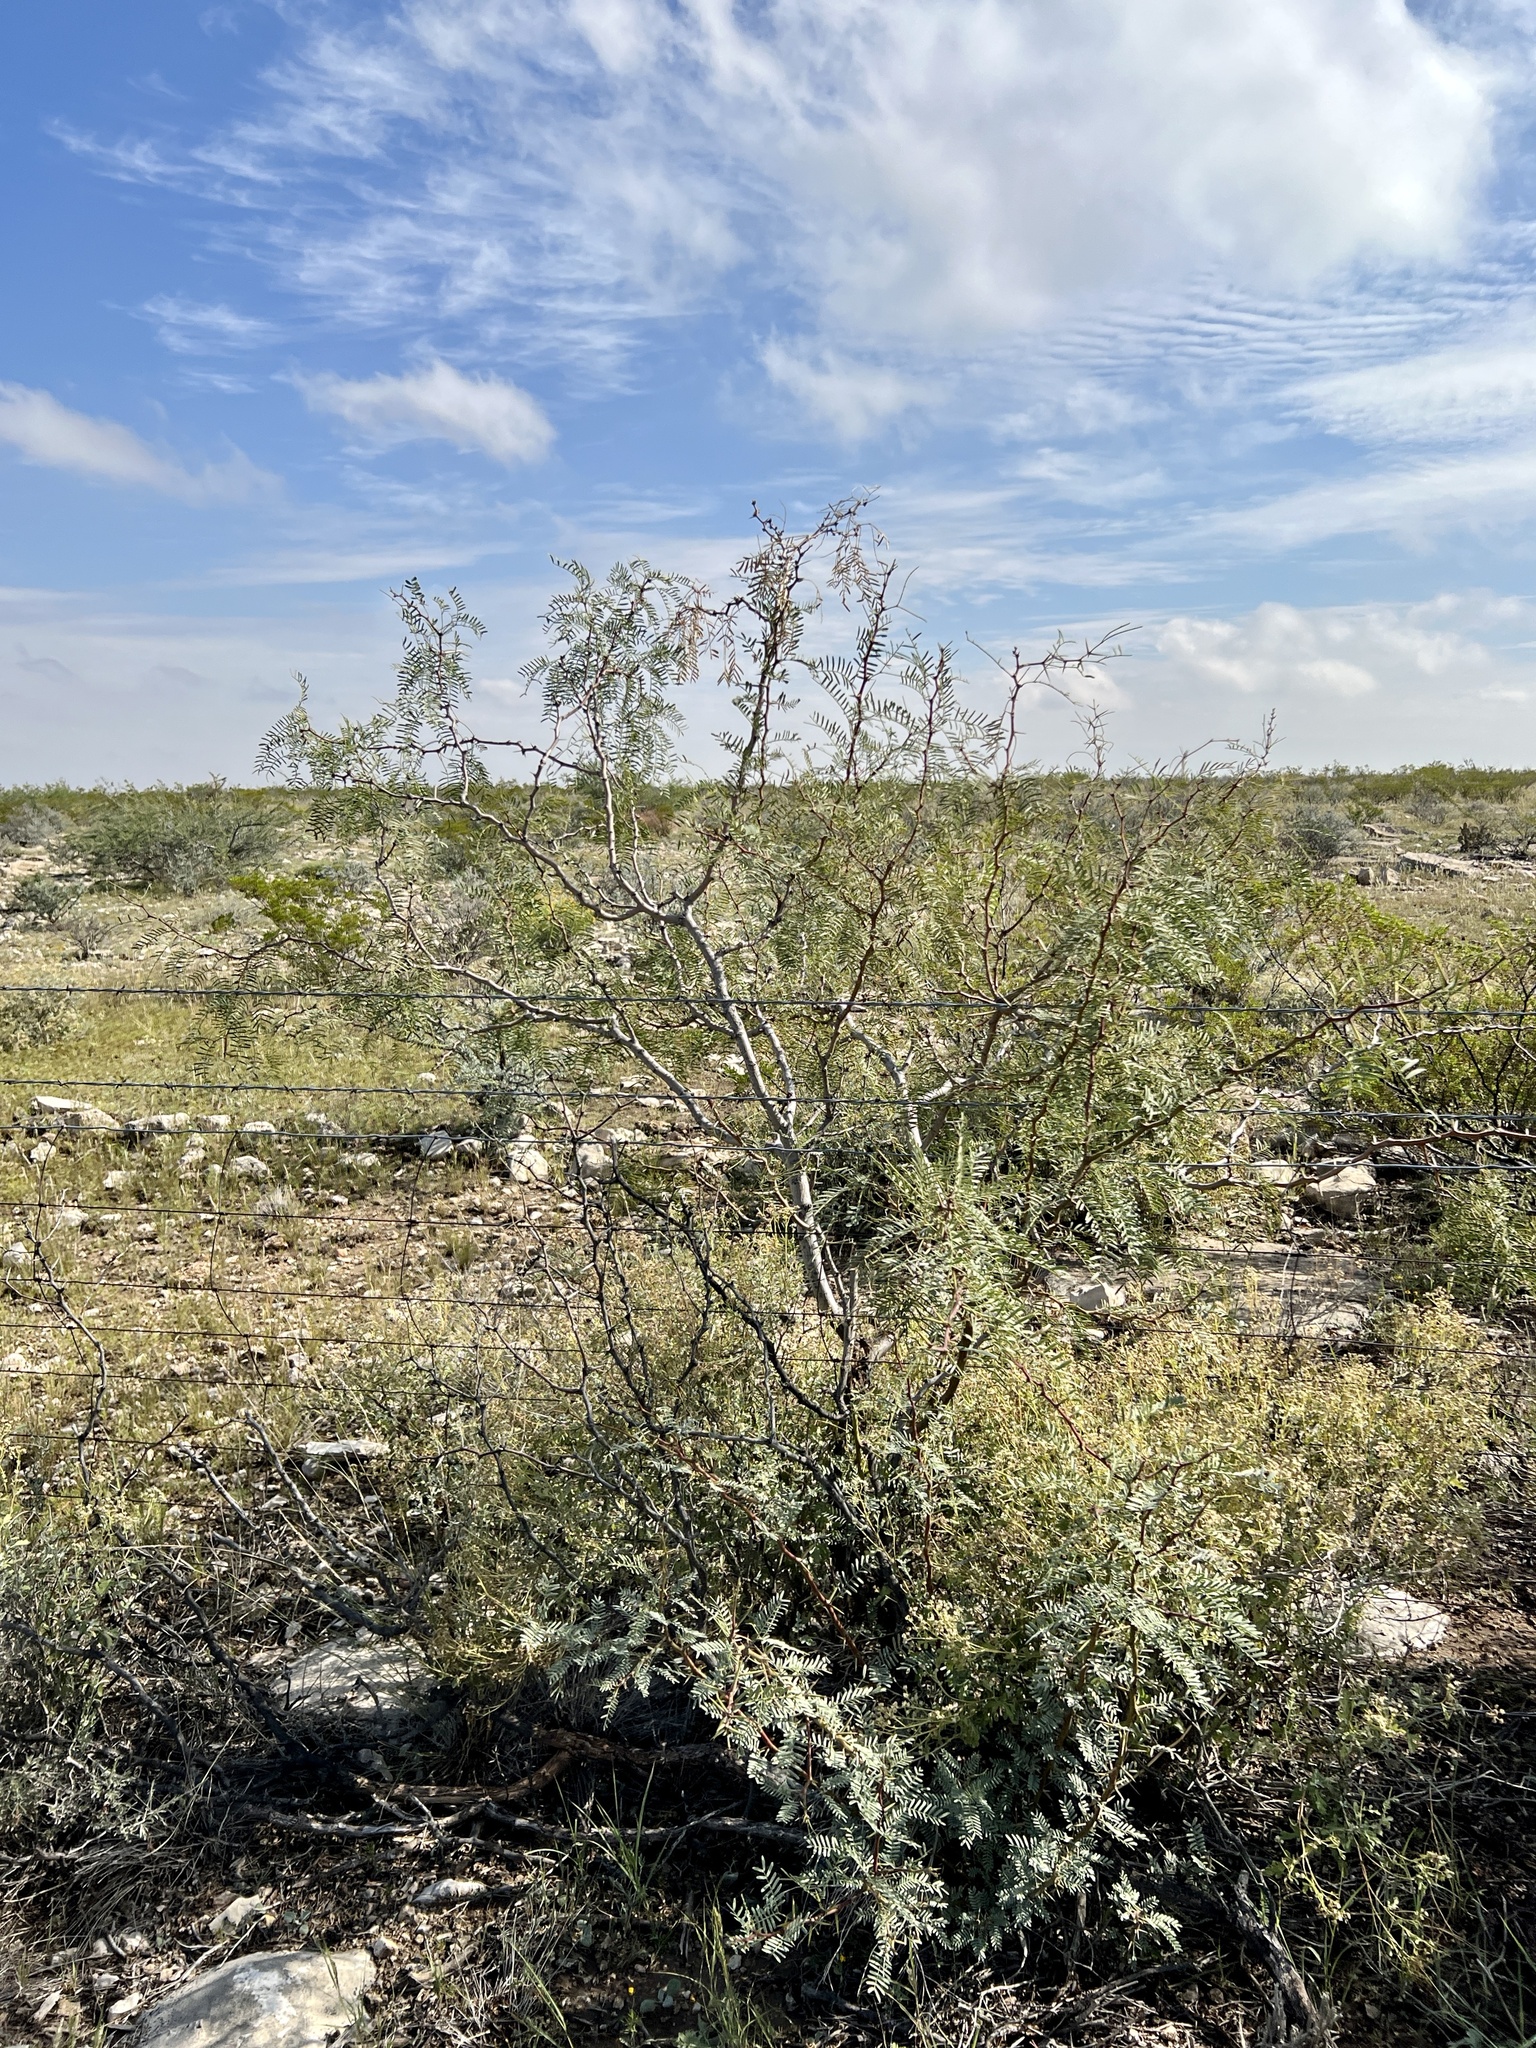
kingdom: Plantae
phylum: Tracheophyta
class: Magnoliopsida
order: Fabales
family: Fabaceae
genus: Prosopis
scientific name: Prosopis glandulosa
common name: Honey mesquite
